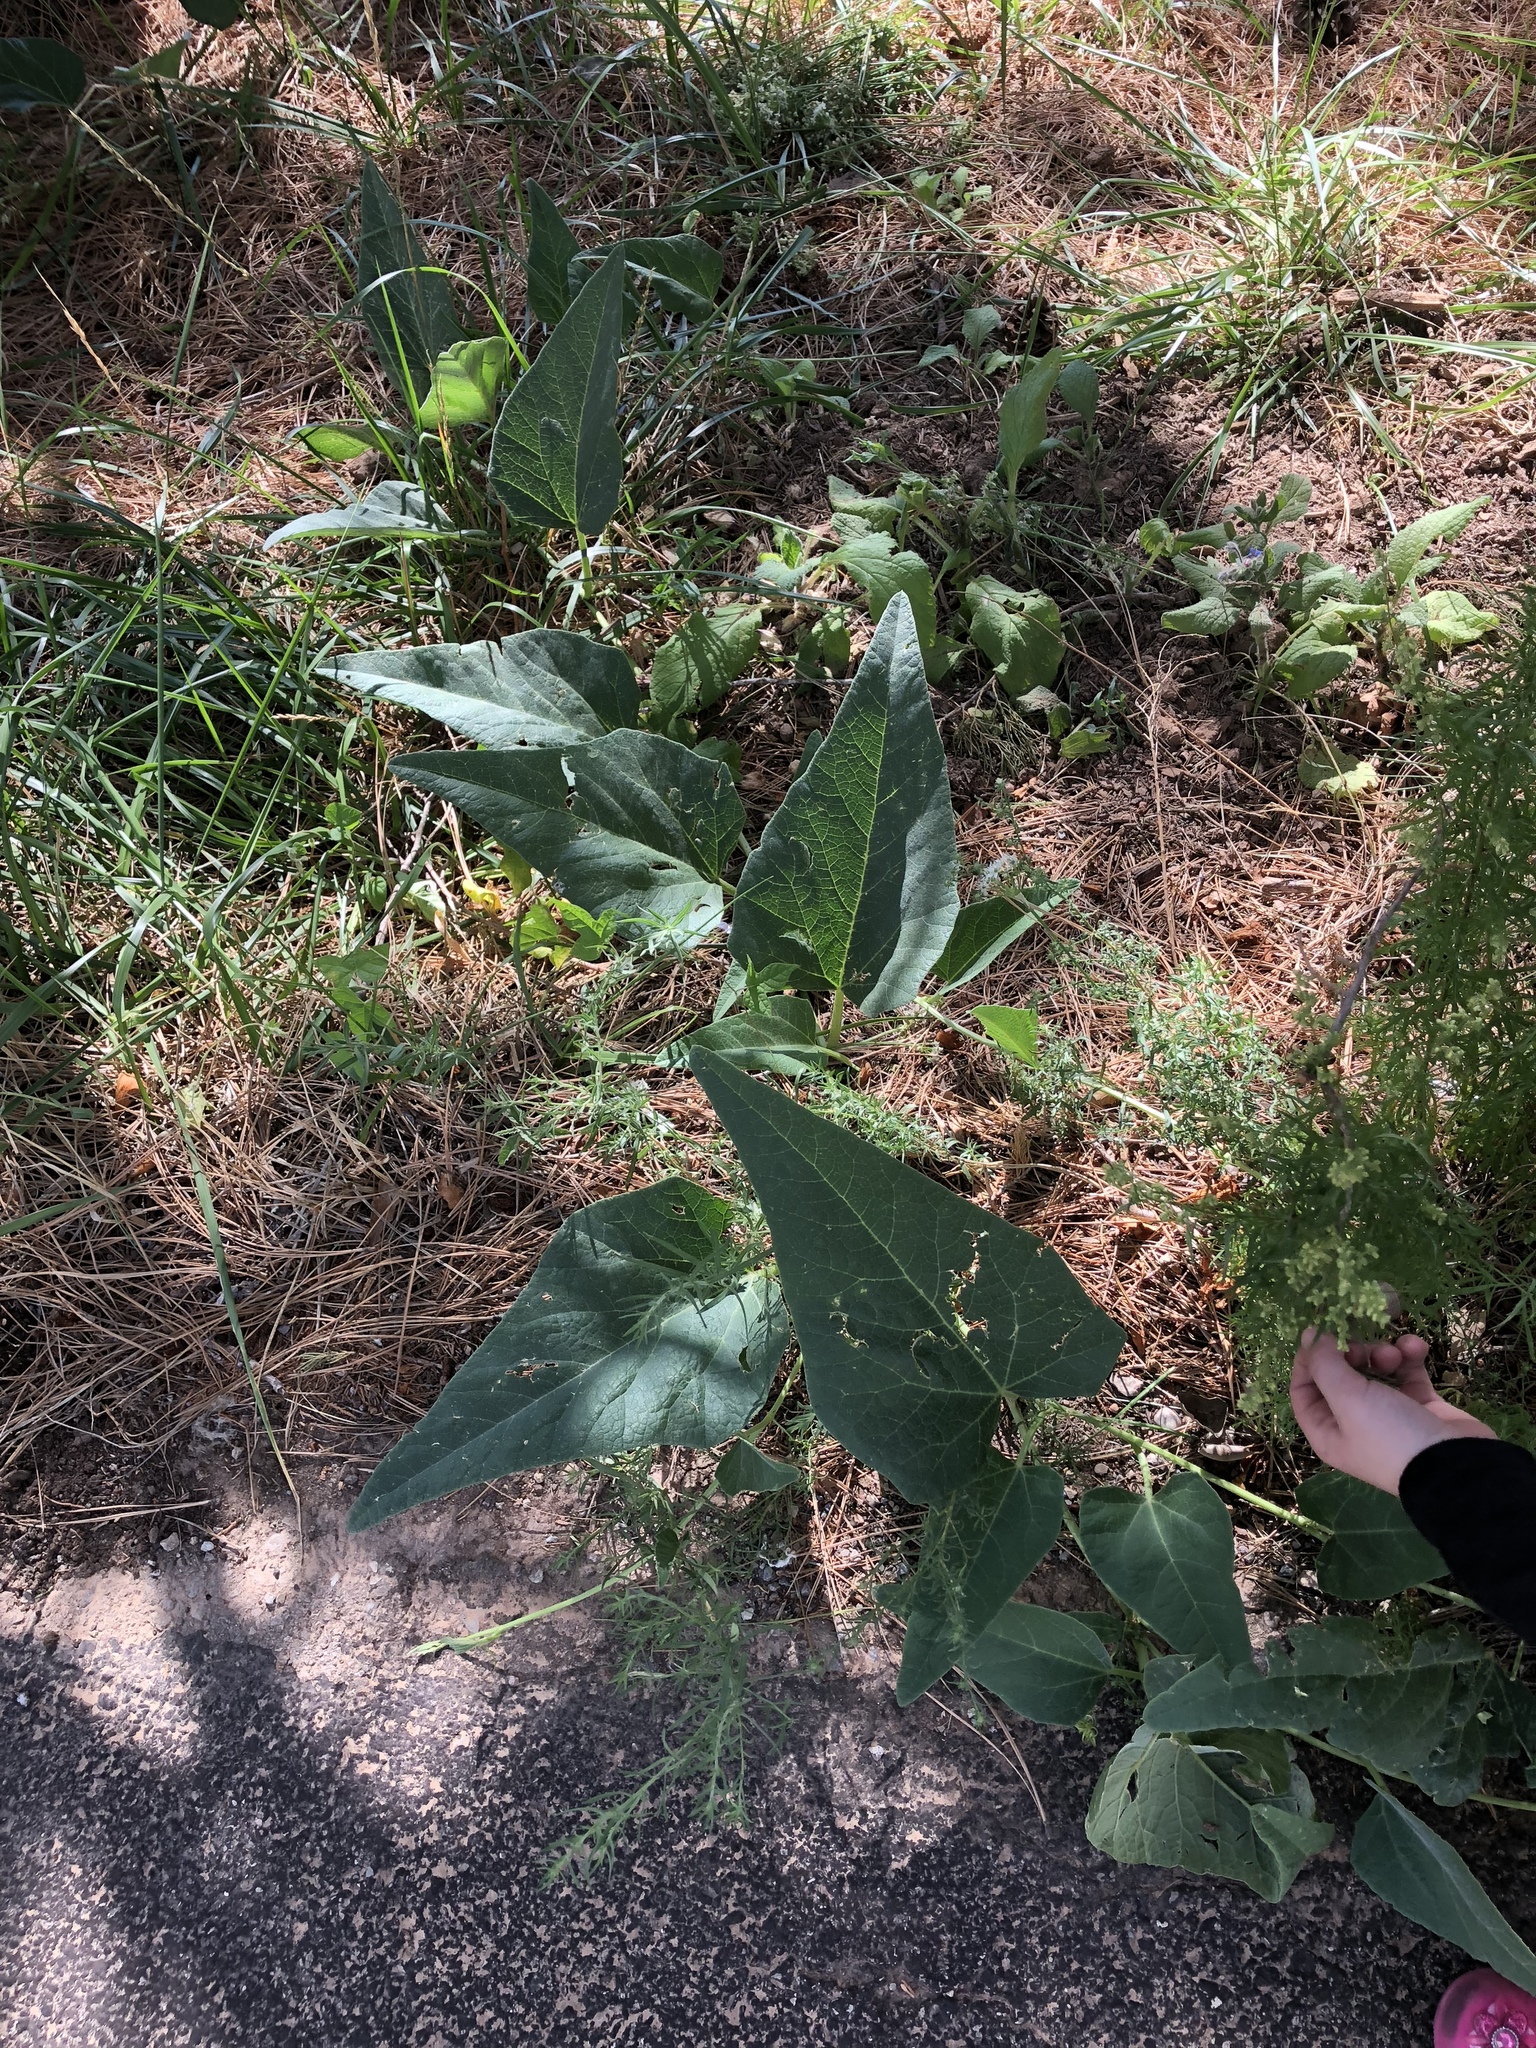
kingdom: Plantae
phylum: Tracheophyta
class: Magnoliopsida
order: Cucurbitales
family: Cucurbitaceae
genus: Cucurbita
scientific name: Cucurbita foetidissima
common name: Buffalo gourd
